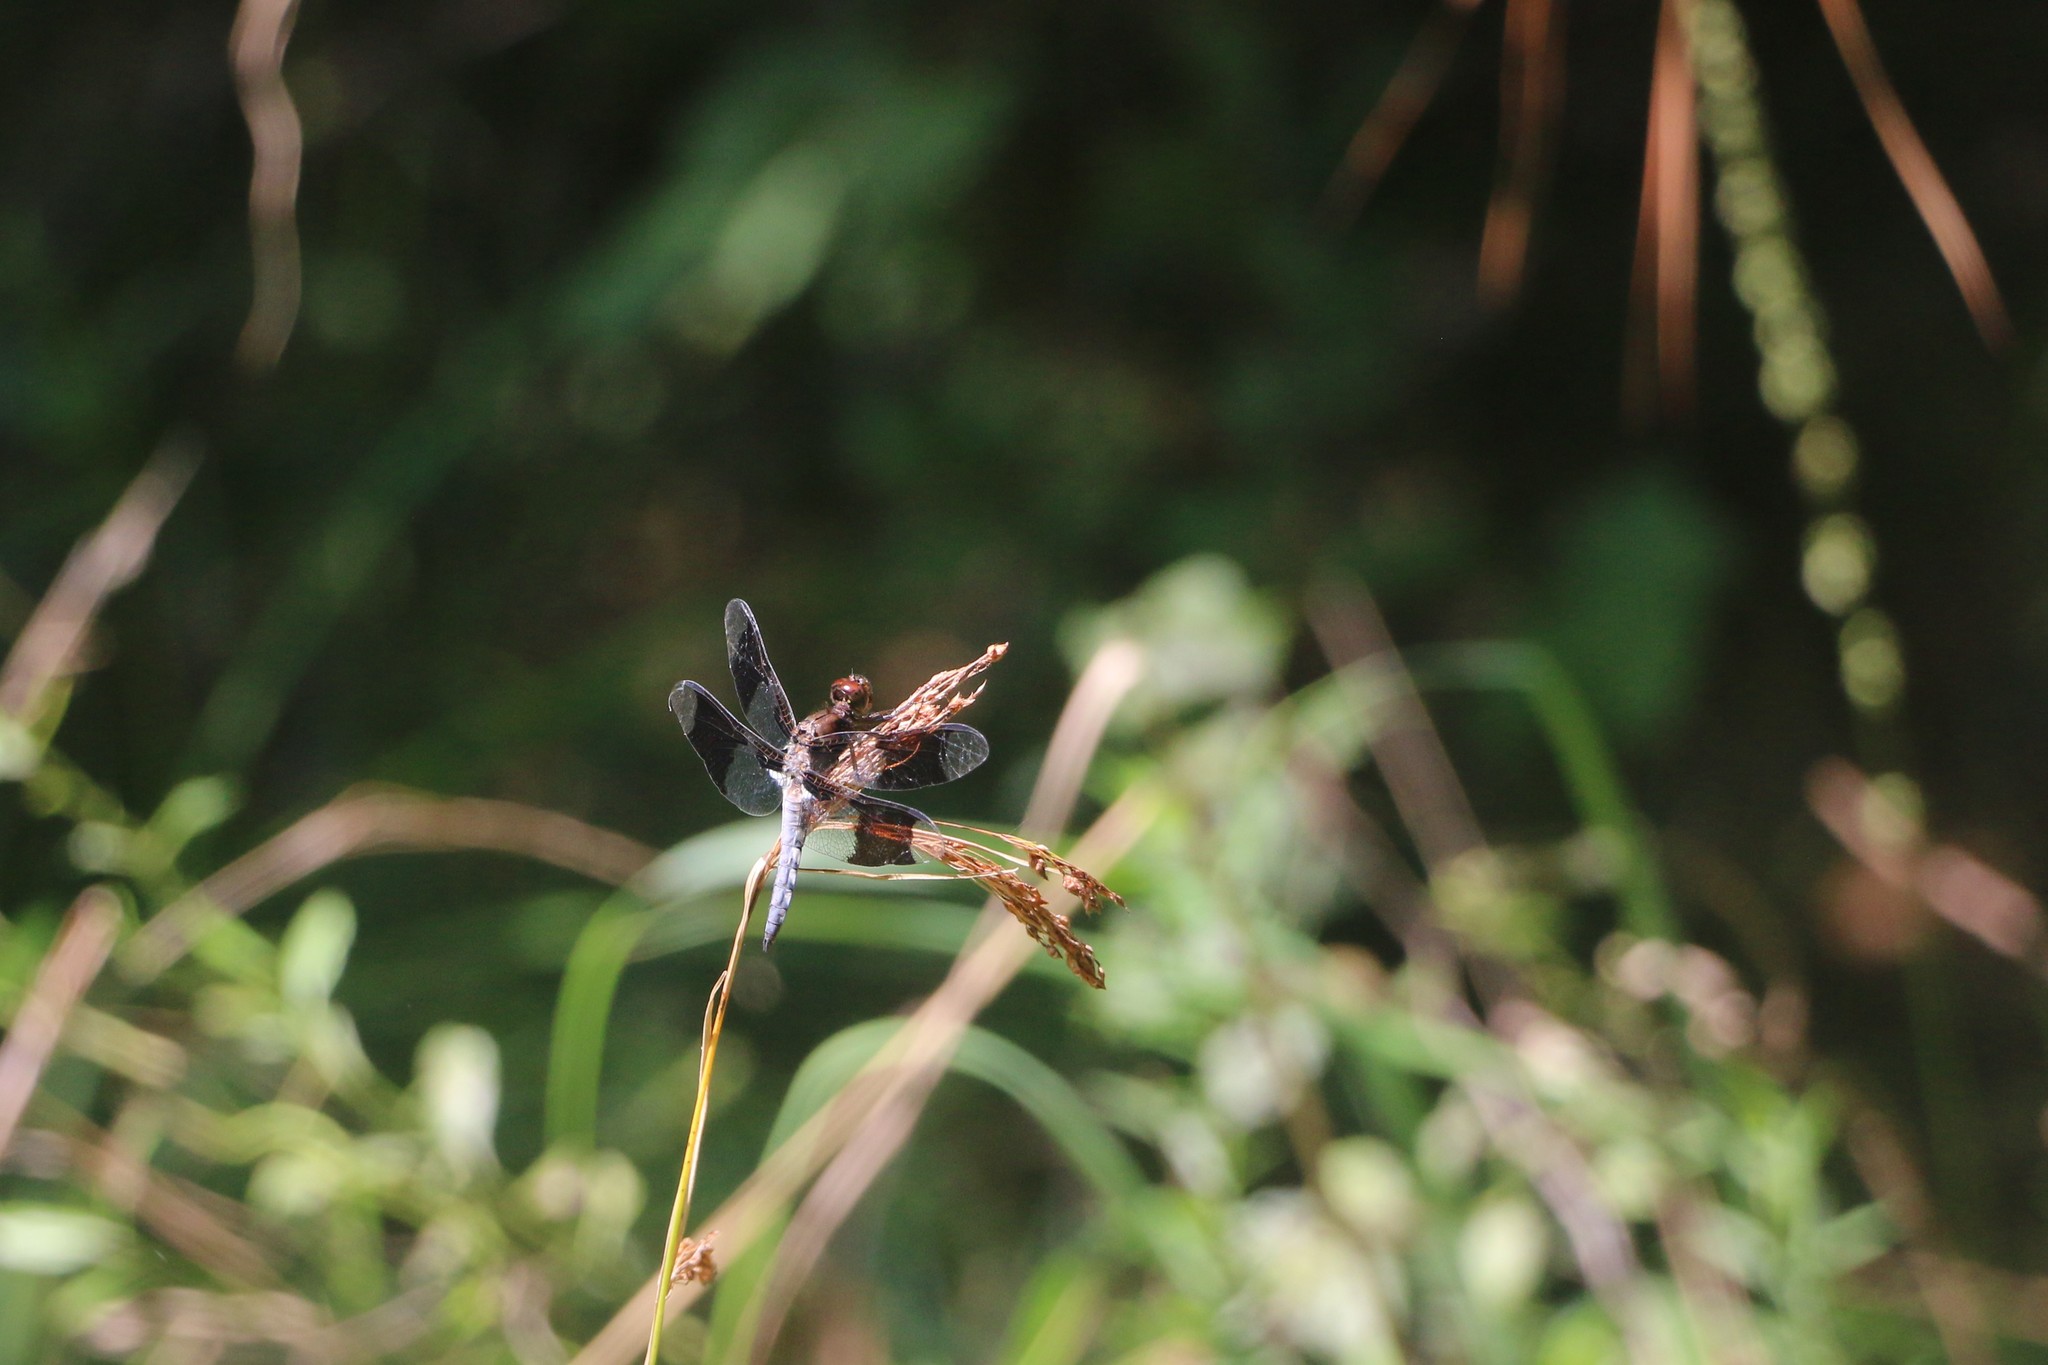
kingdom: Animalia
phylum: Arthropoda
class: Insecta
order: Odonata
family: Libellulidae
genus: Plathemis
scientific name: Plathemis lydia
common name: Common whitetail
